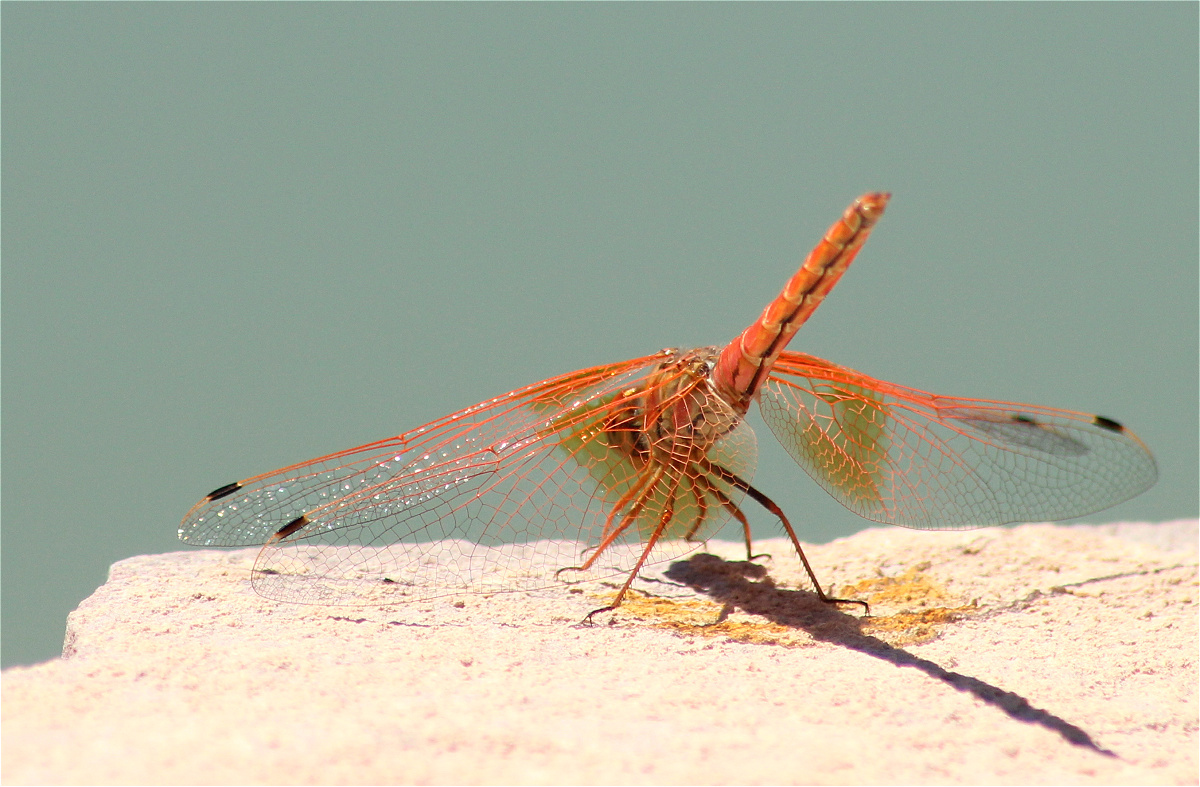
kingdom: Animalia
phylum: Arthropoda
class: Insecta
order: Odonata
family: Libellulidae
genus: Trithemis
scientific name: Trithemis kirbyi
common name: Kirby's dropwing
